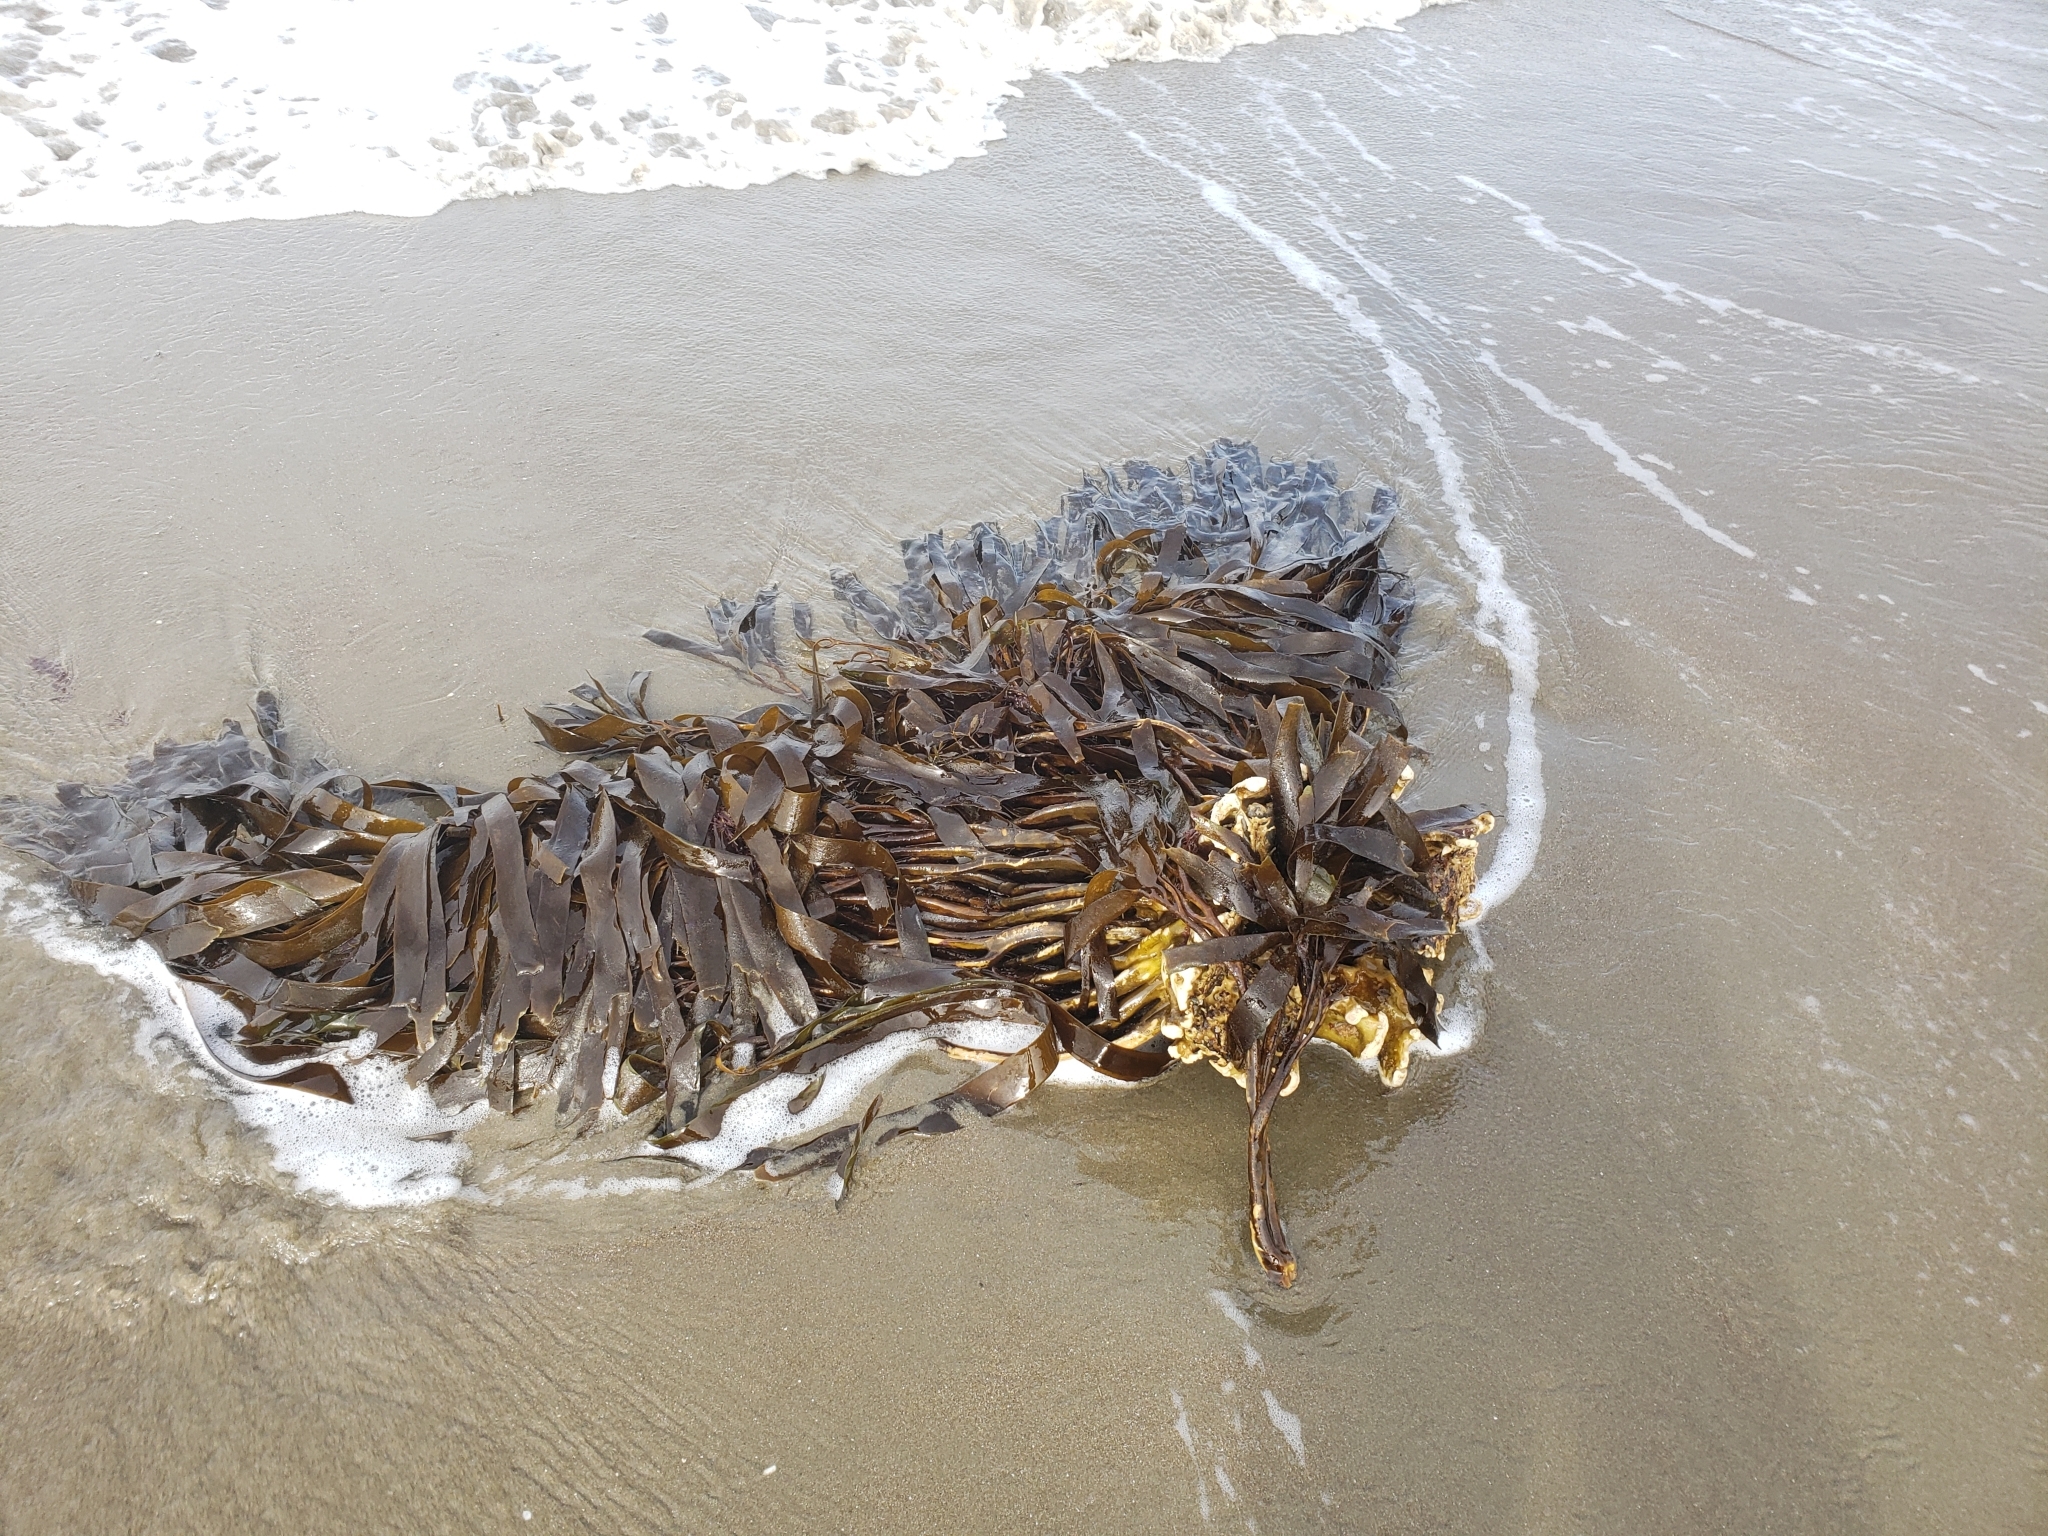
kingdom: Chromista
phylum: Ochrophyta
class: Phaeophyceae
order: Laminariales
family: Lessoniaceae
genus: Lessonia
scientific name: Lessonia variegata
